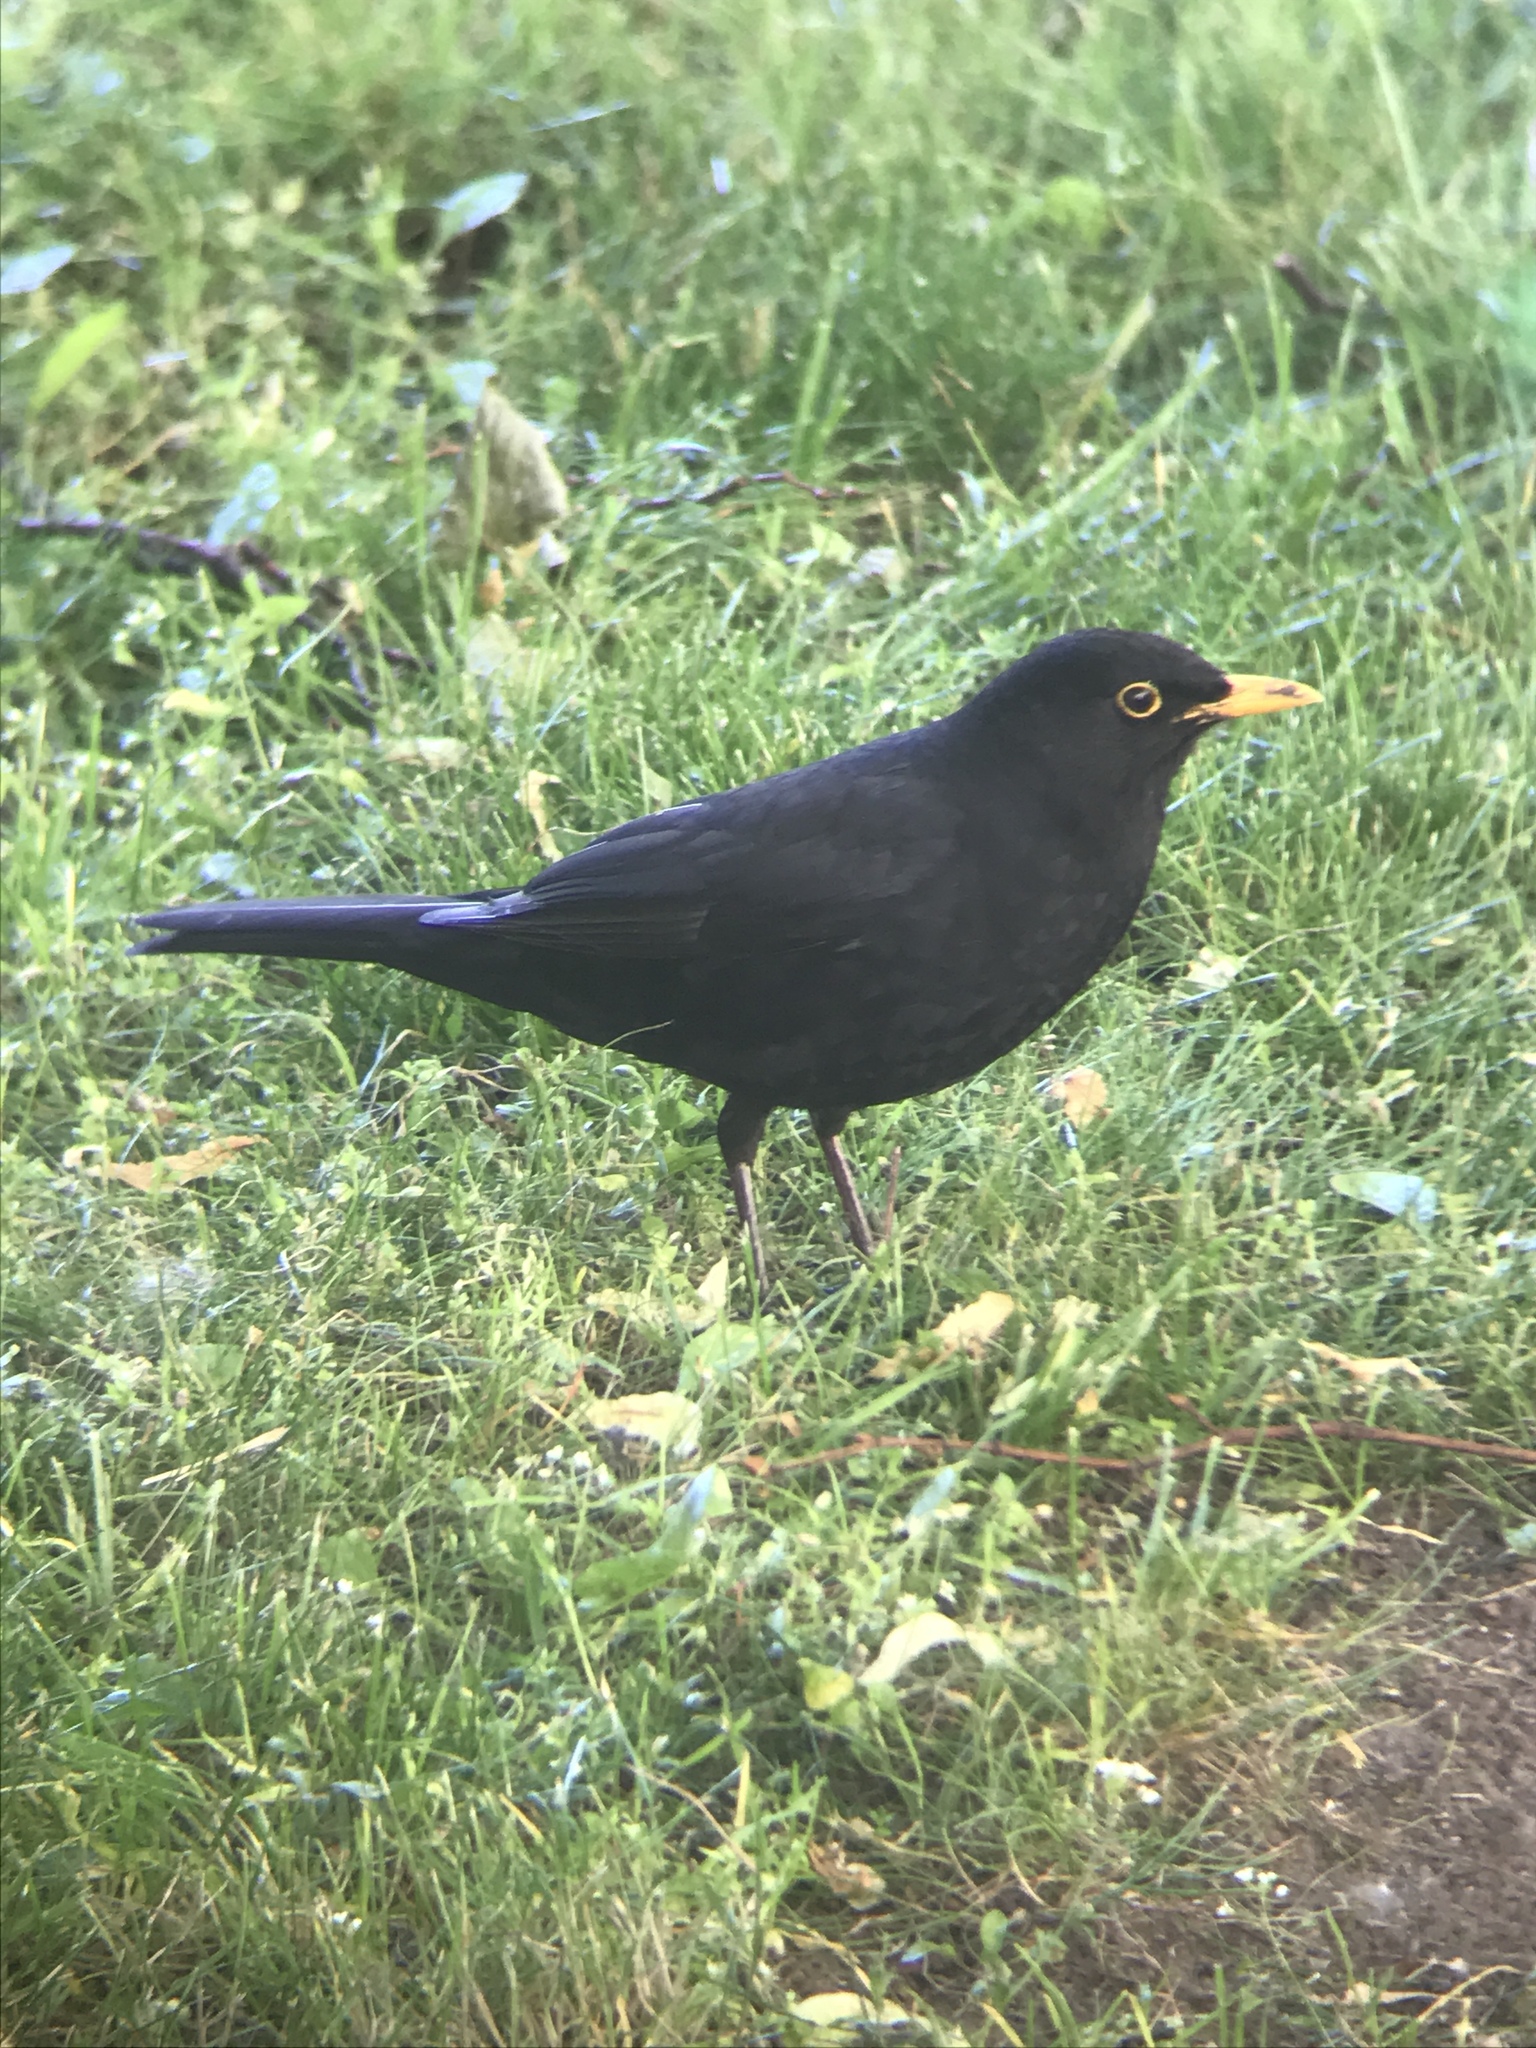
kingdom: Animalia
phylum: Chordata
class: Aves
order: Passeriformes
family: Turdidae
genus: Turdus
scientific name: Turdus merula
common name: Common blackbird
